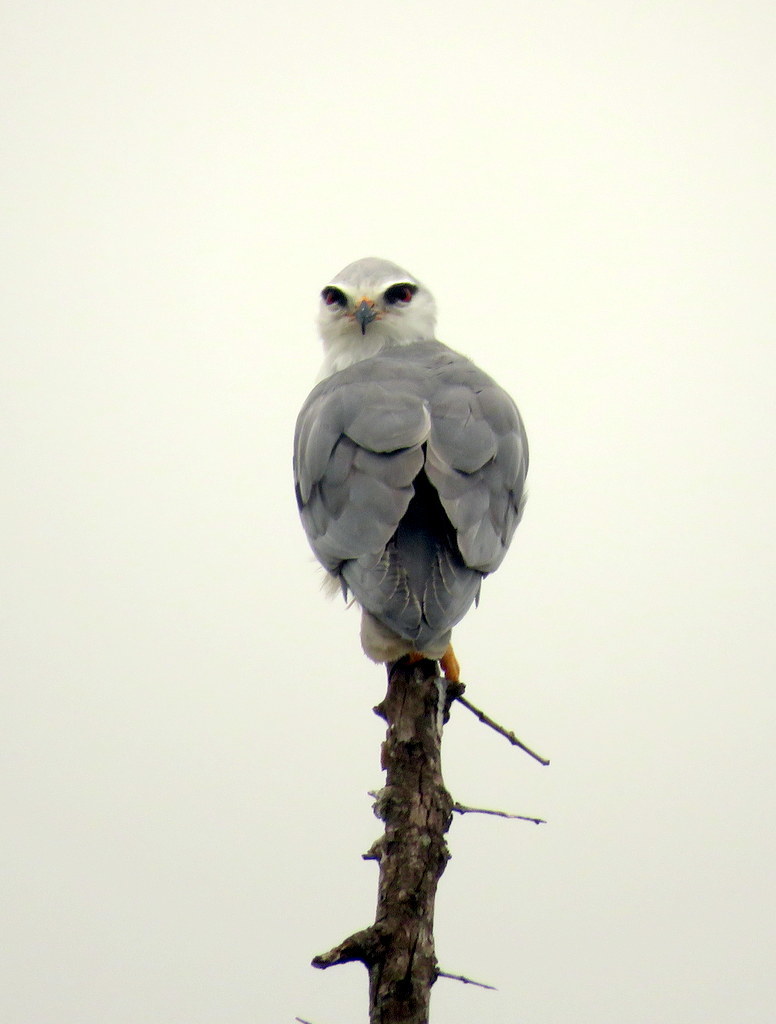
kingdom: Animalia
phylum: Chordata
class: Aves
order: Accipitriformes
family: Accipitridae
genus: Elanus
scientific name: Elanus caeruleus
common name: Black-winged kite
